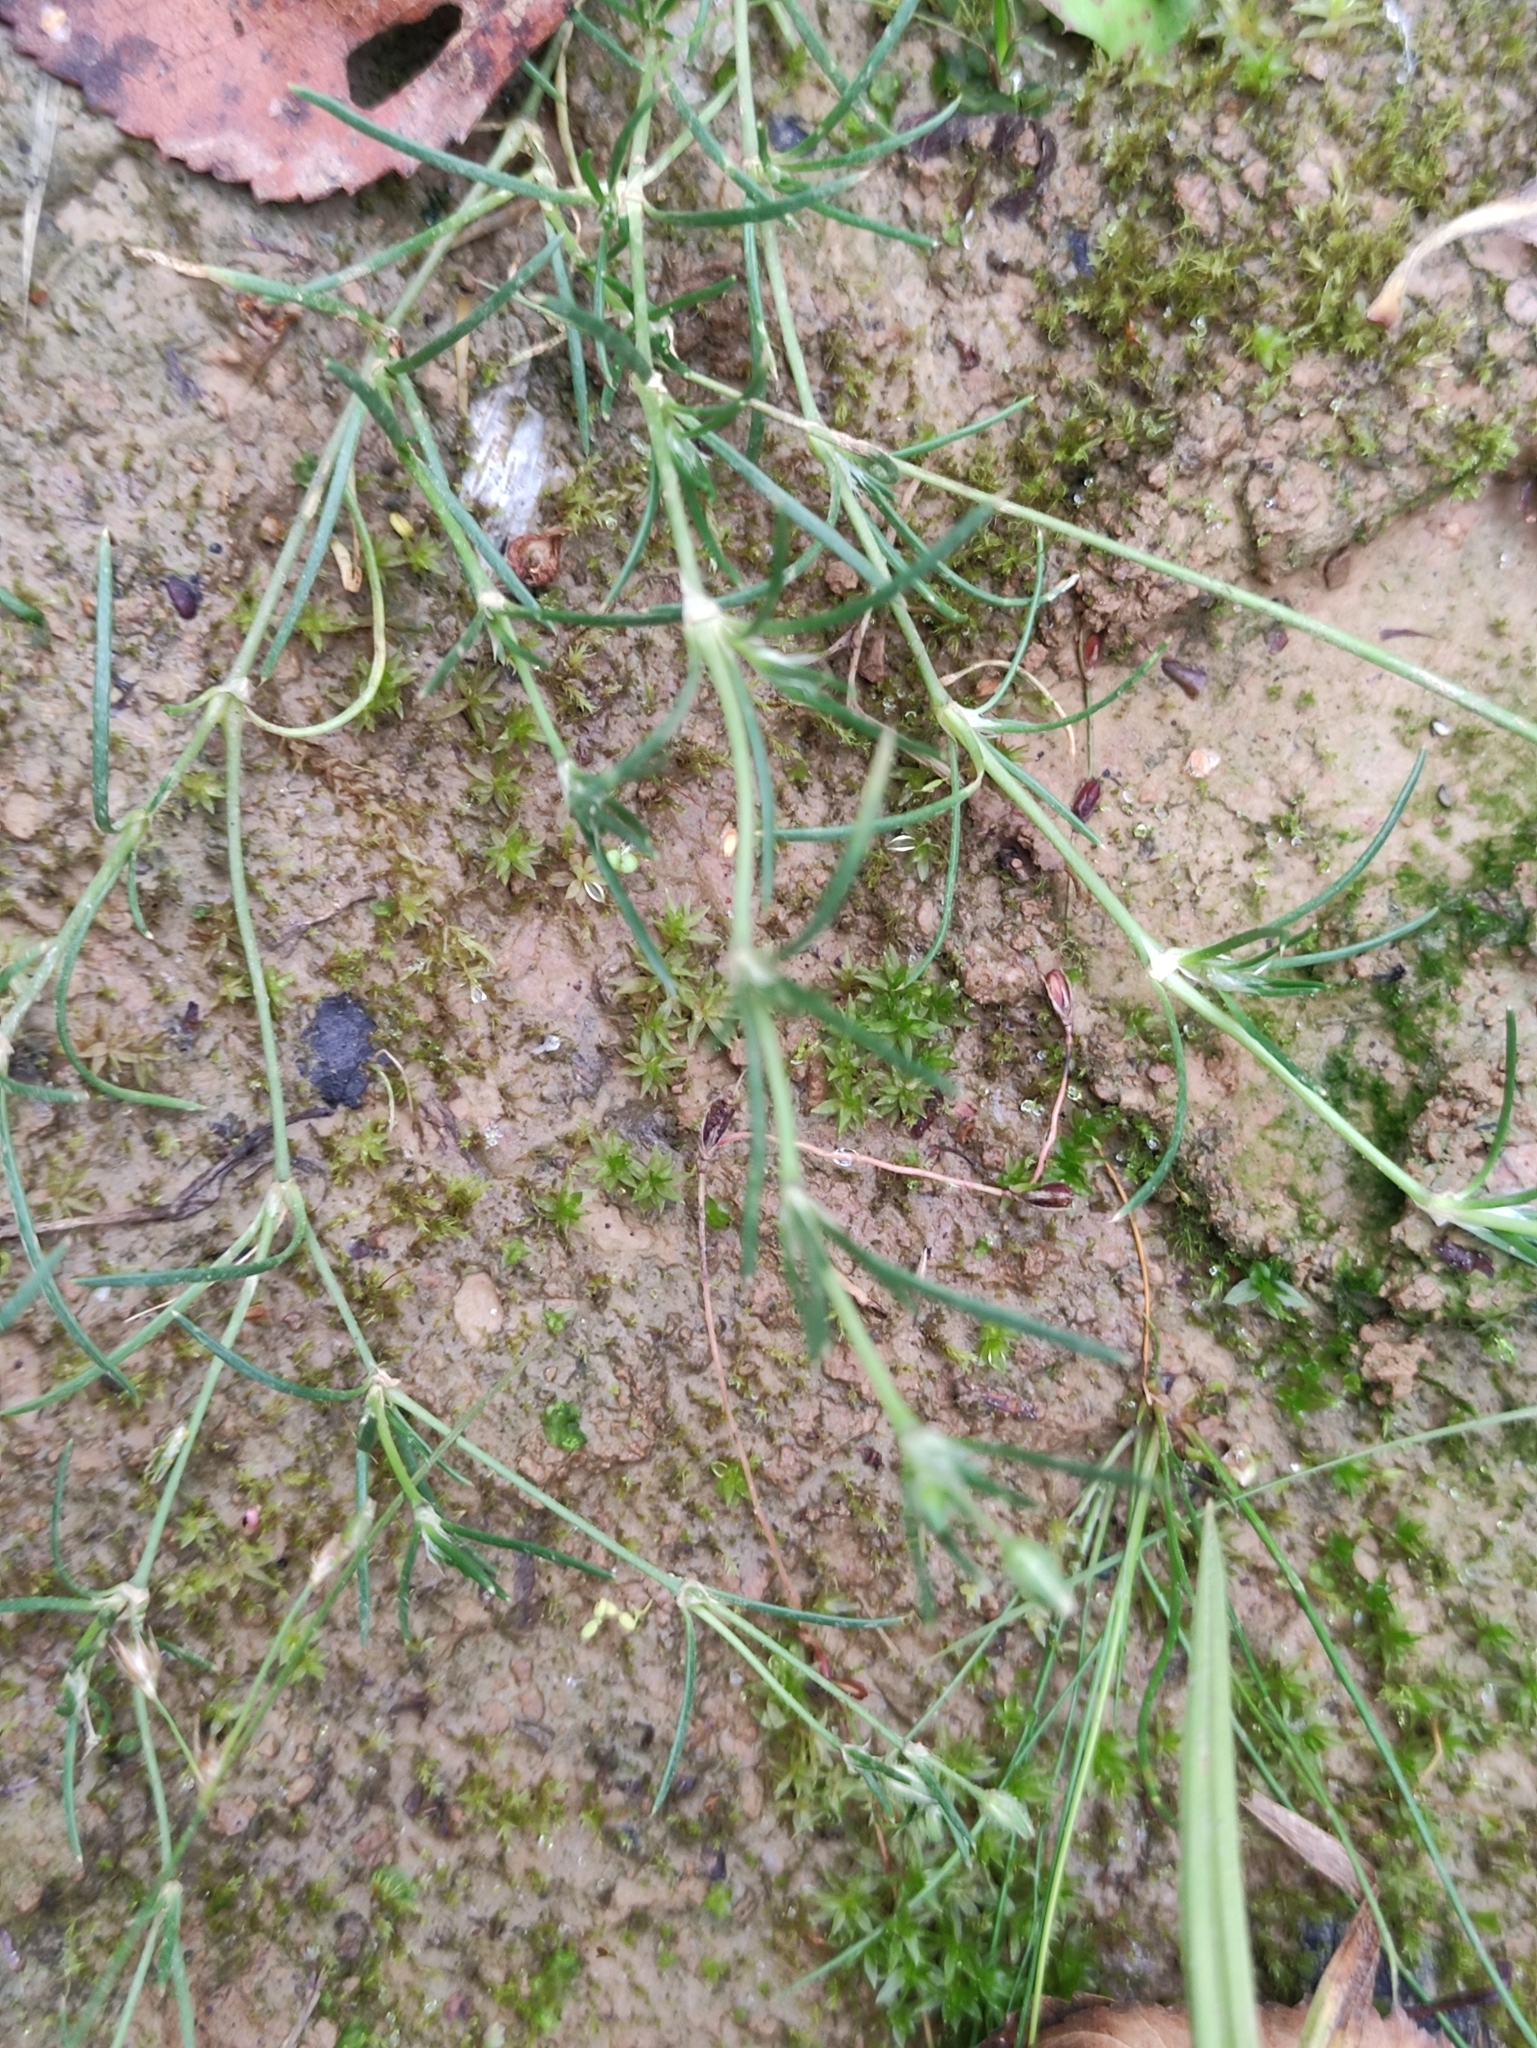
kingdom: Plantae
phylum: Tracheophyta
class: Magnoliopsida
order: Caryophyllales
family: Caryophyllaceae
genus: Psammophiliella
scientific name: Psammophiliella muralis
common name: Cushion baby's-breath
